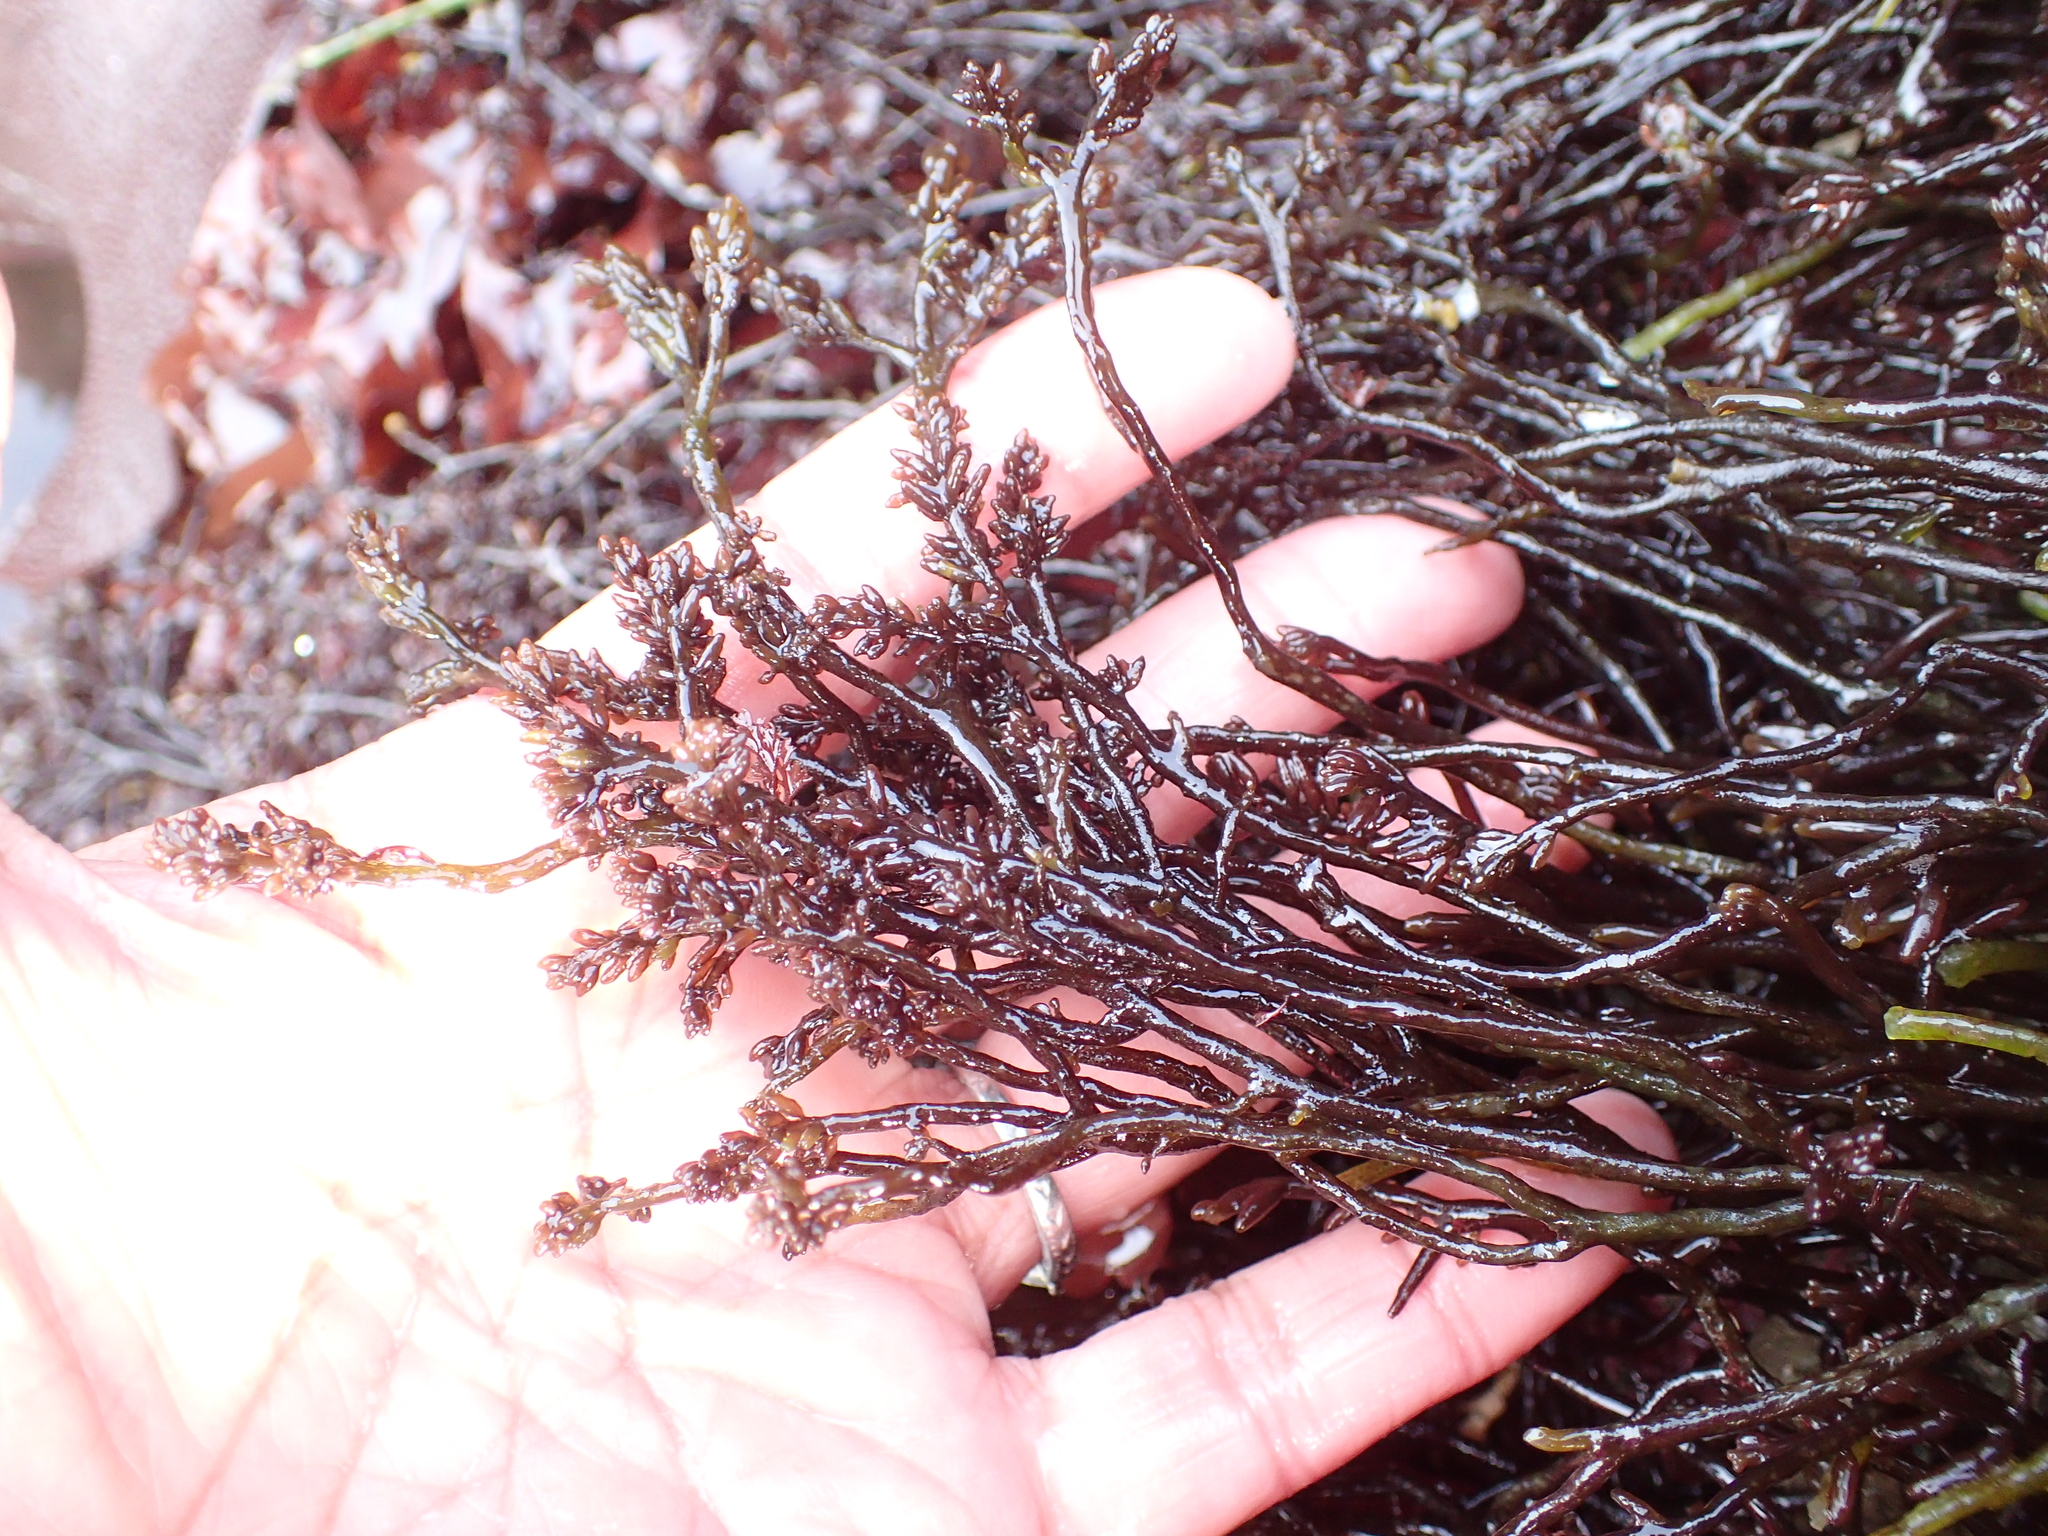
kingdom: Plantae
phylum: Rhodophyta
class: Florideophyceae
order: Rhodymeniales
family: Champiaceae
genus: Neogastroclonium
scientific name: Neogastroclonium subarticulatum
